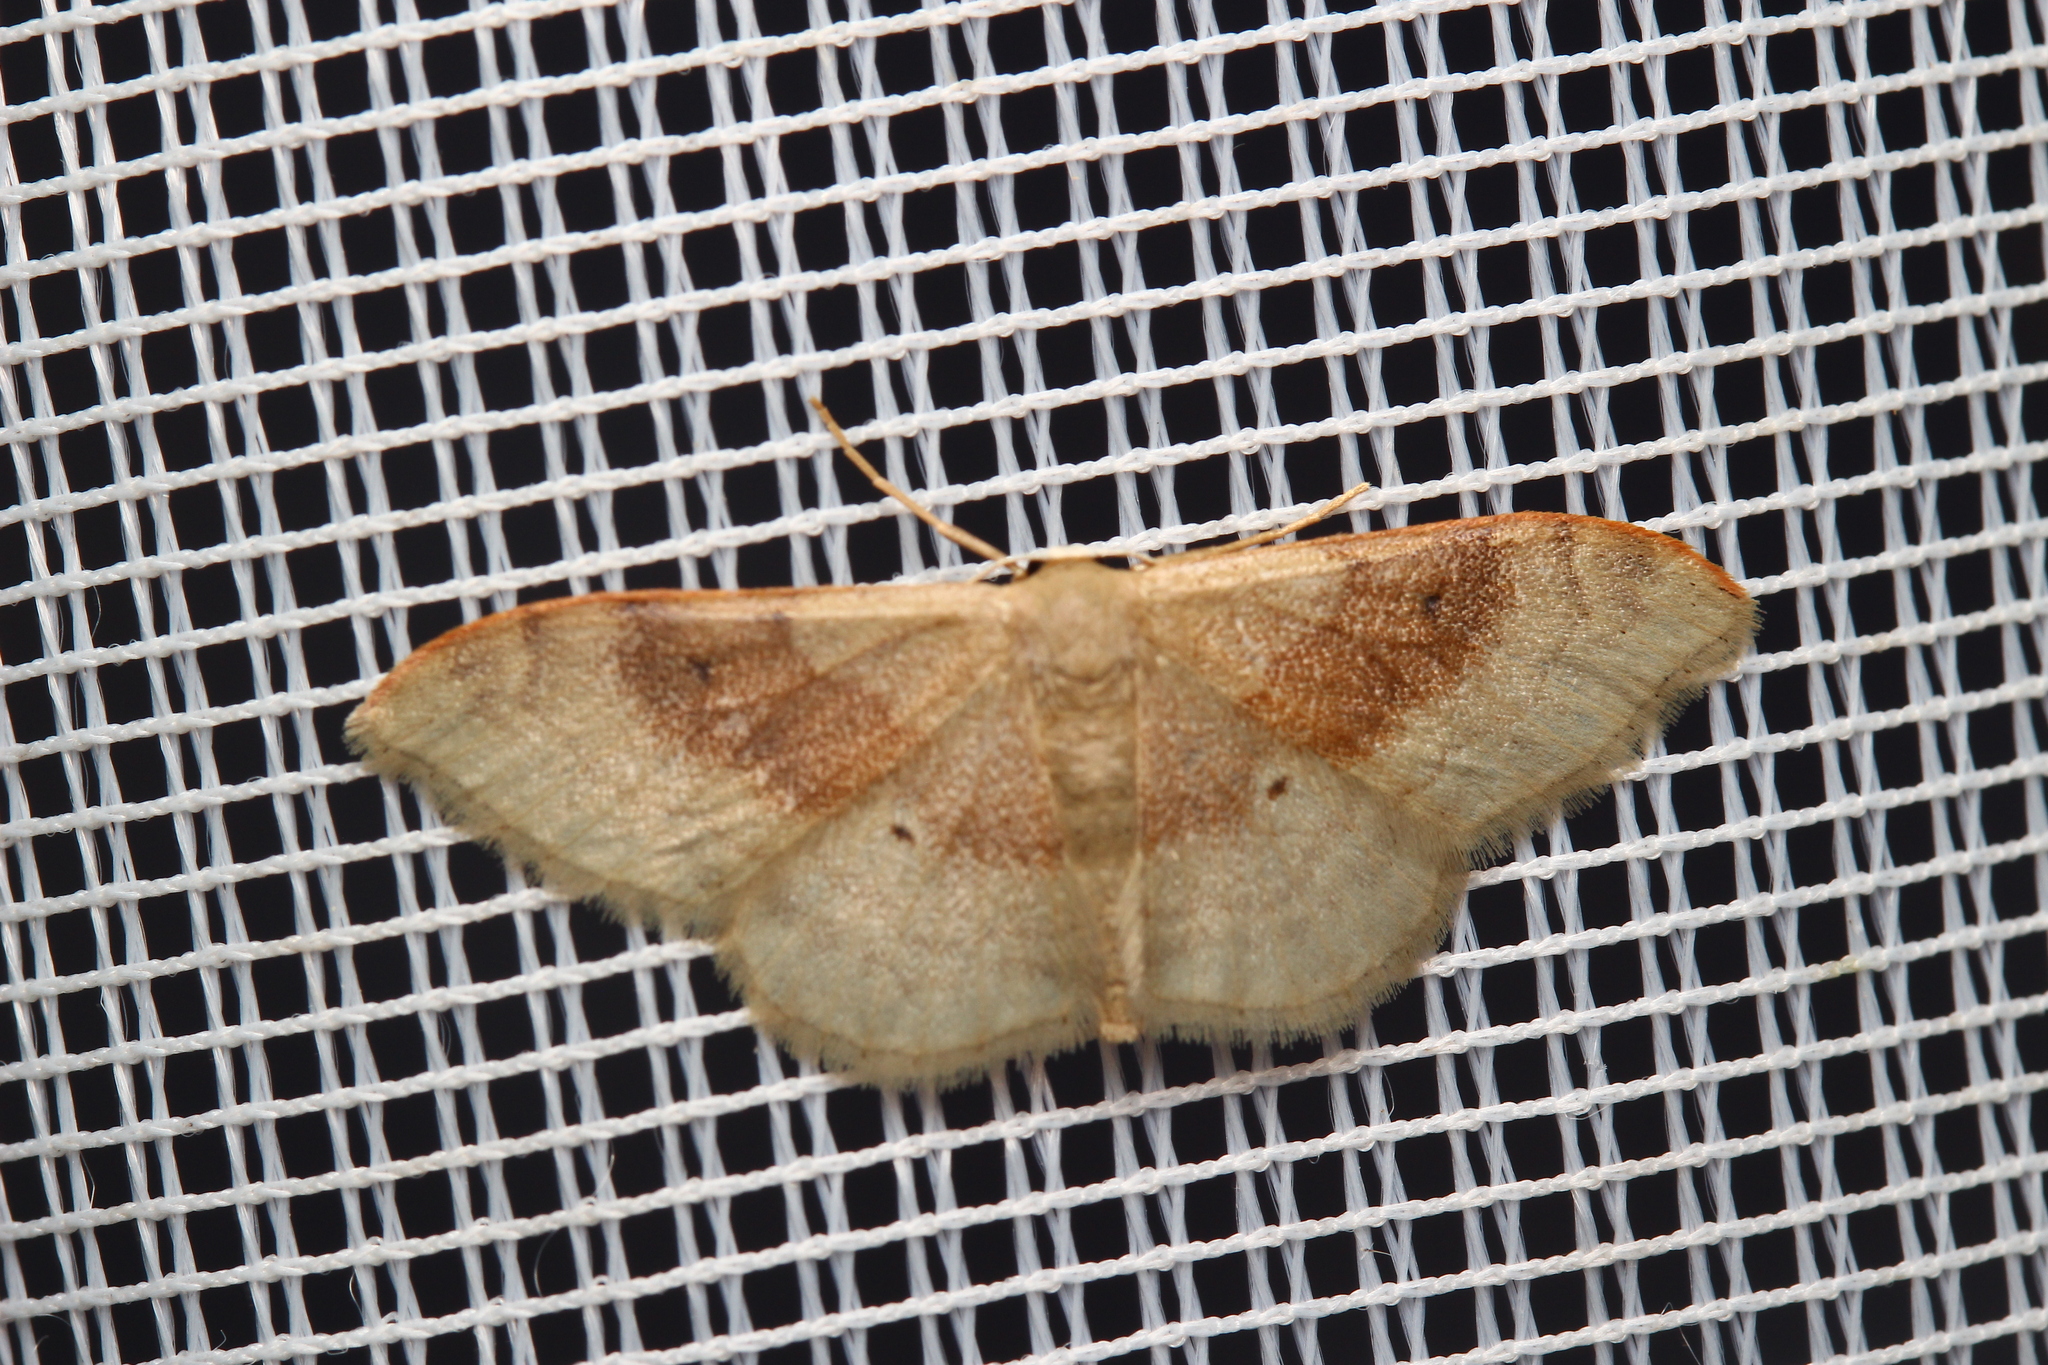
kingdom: Animalia
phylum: Arthropoda
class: Insecta
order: Lepidoptera
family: Geometridae
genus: Idaea
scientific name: Idaea degeneraria
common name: Portland ribbon wave
